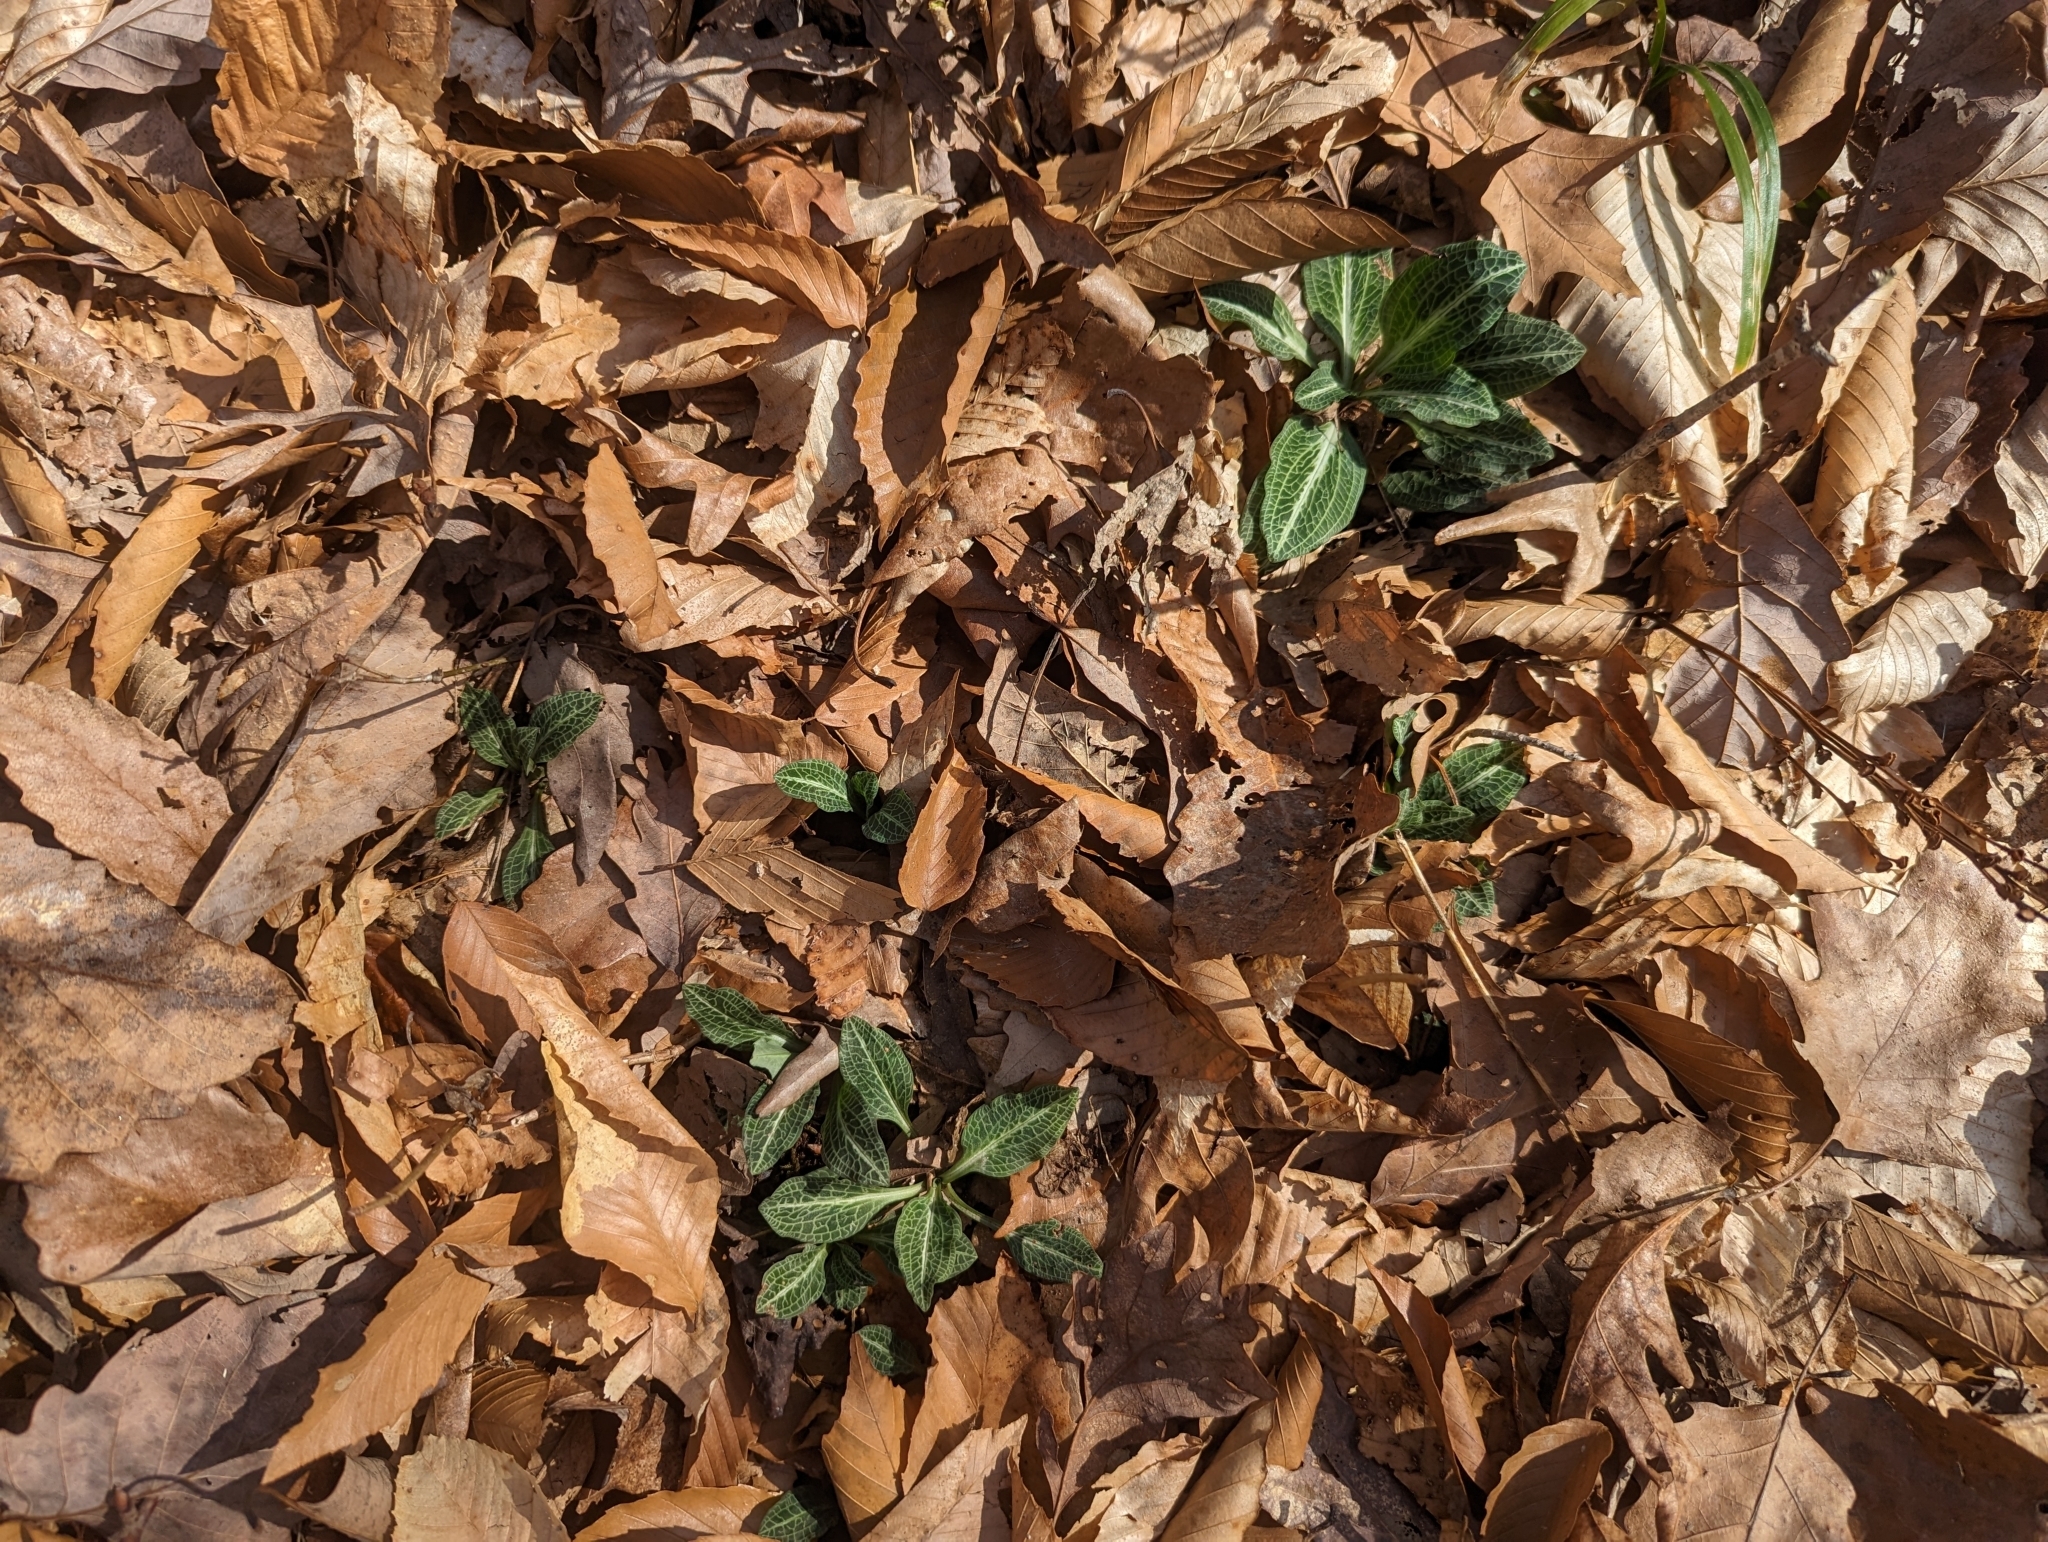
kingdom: Plantae
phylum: Tracheophyta
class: Liliopsida
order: Asparagales
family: Orchidaceae
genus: Goodyera
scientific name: Goodyera pubescens
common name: Downy rattlesnake-plantain
